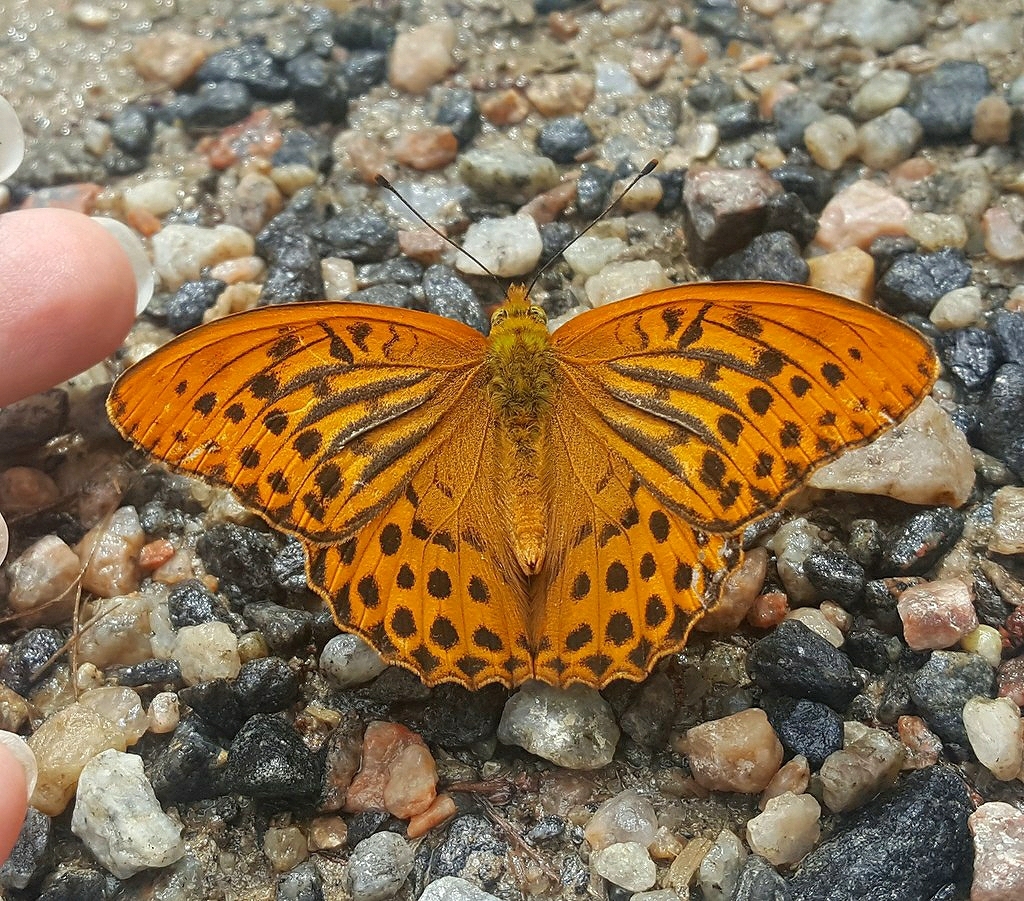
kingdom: Animalia
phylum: Arthropoda
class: Insecta
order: Lepidoptera
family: Nymphalidae
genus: Argynnis
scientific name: Argynnis paphia
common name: Silver-washed fritillary
